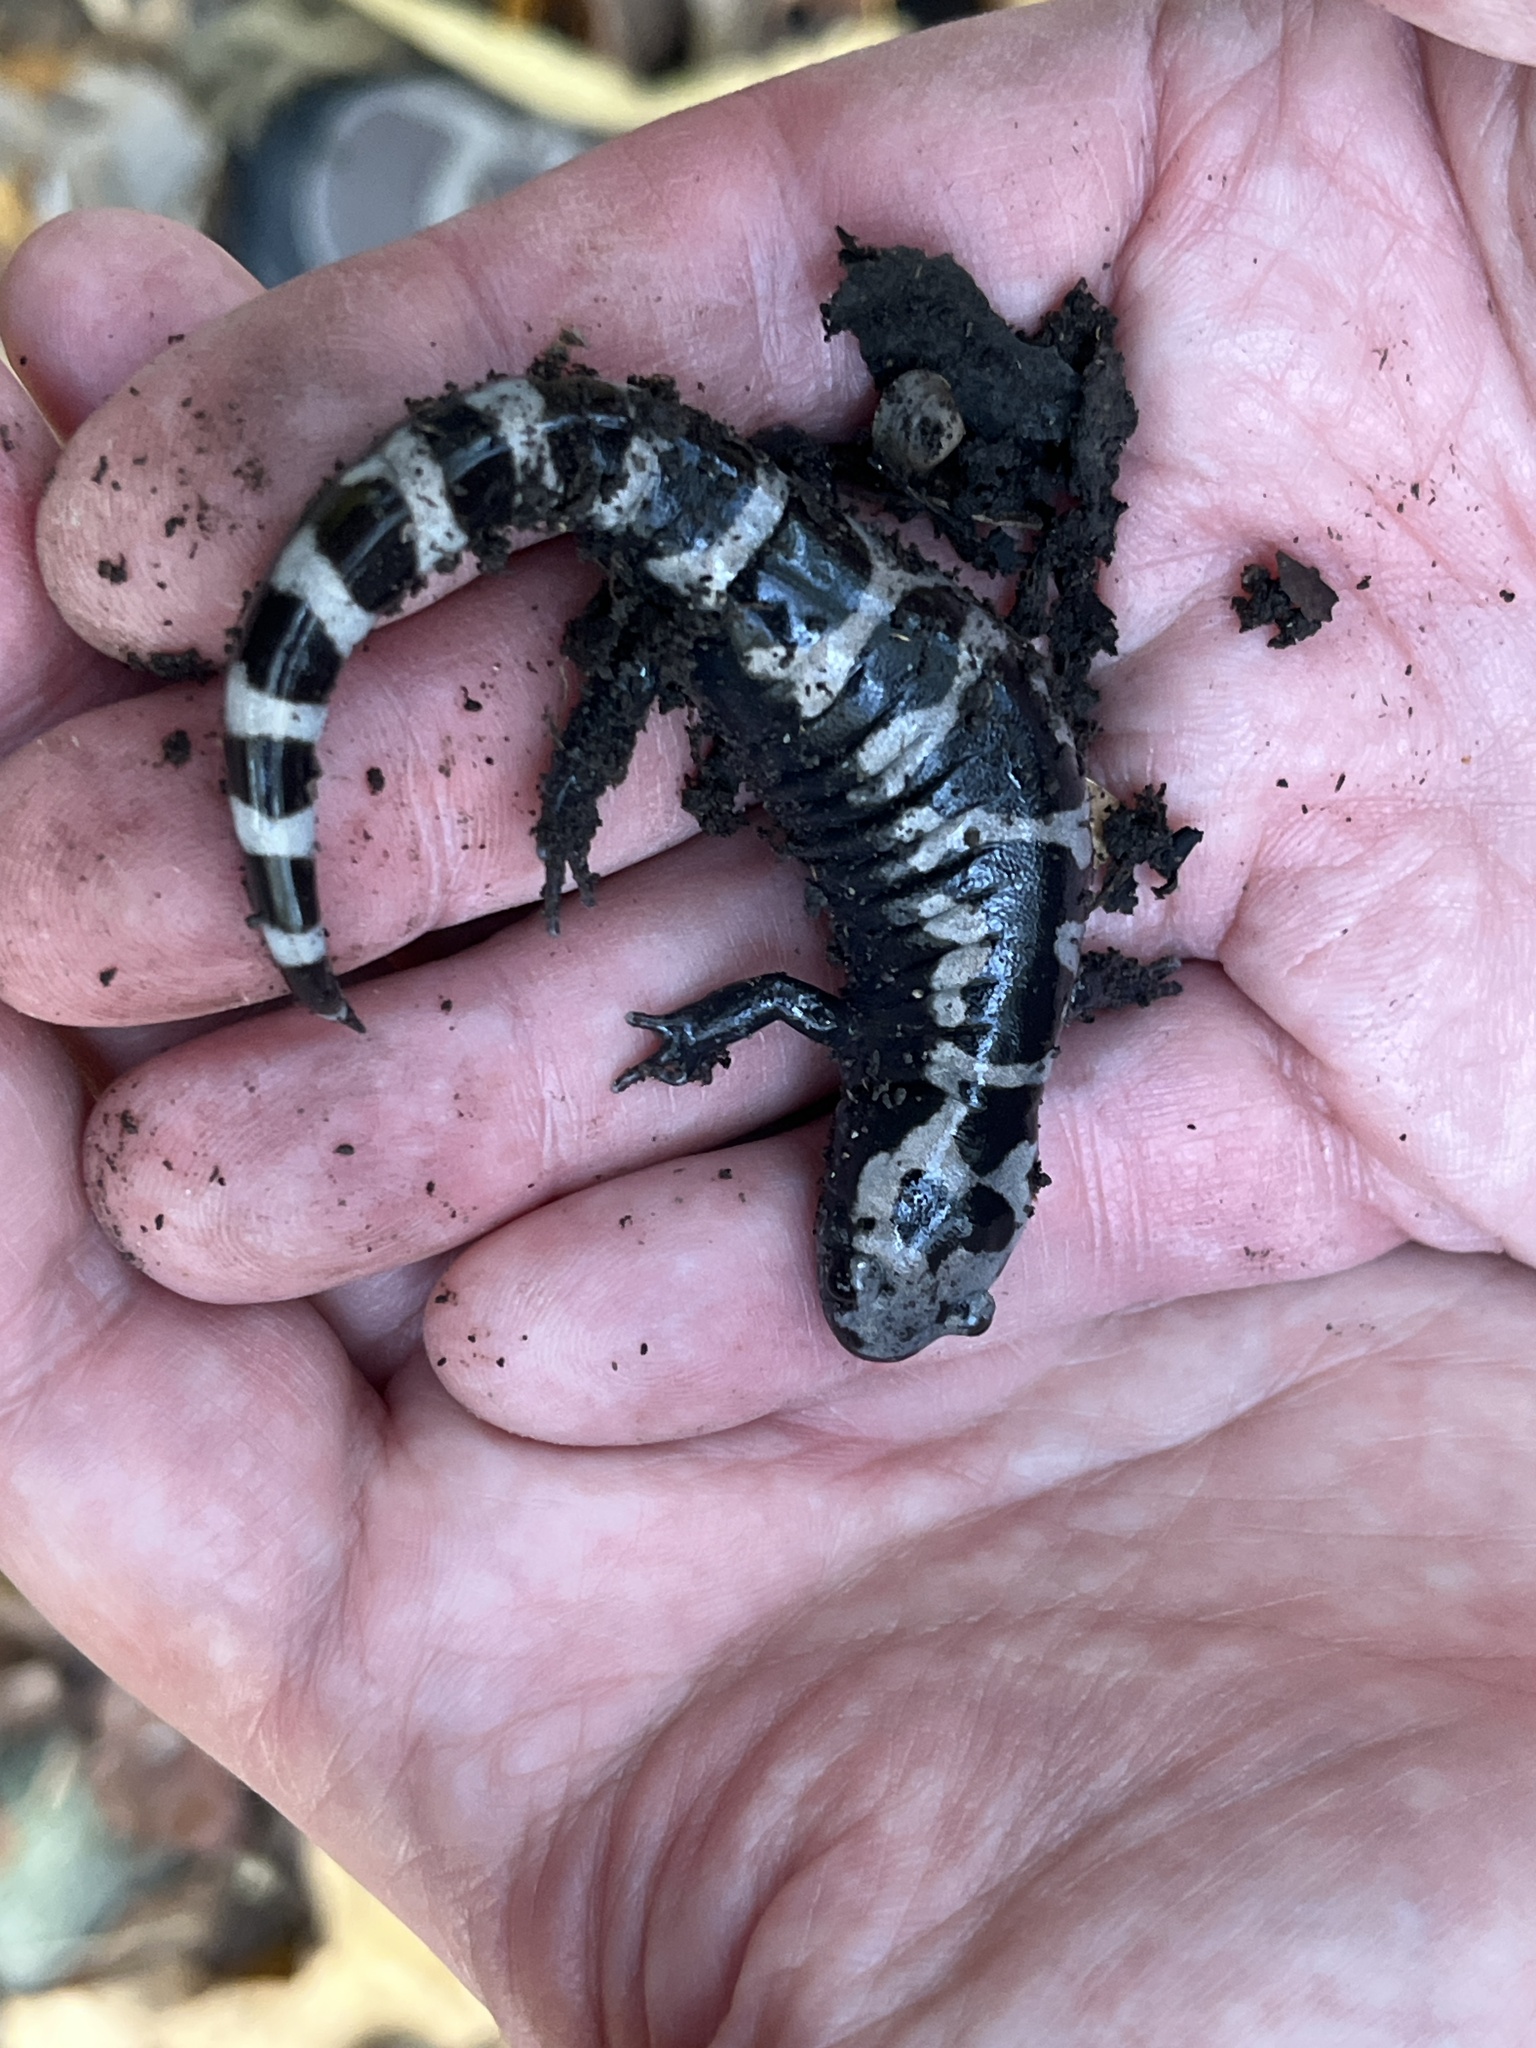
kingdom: Animalia
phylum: Chordata
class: Amphibia
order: Caudata
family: Ambystomatidae
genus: Ambystoma
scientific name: Ambystoma opacum
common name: Marbled salamander
